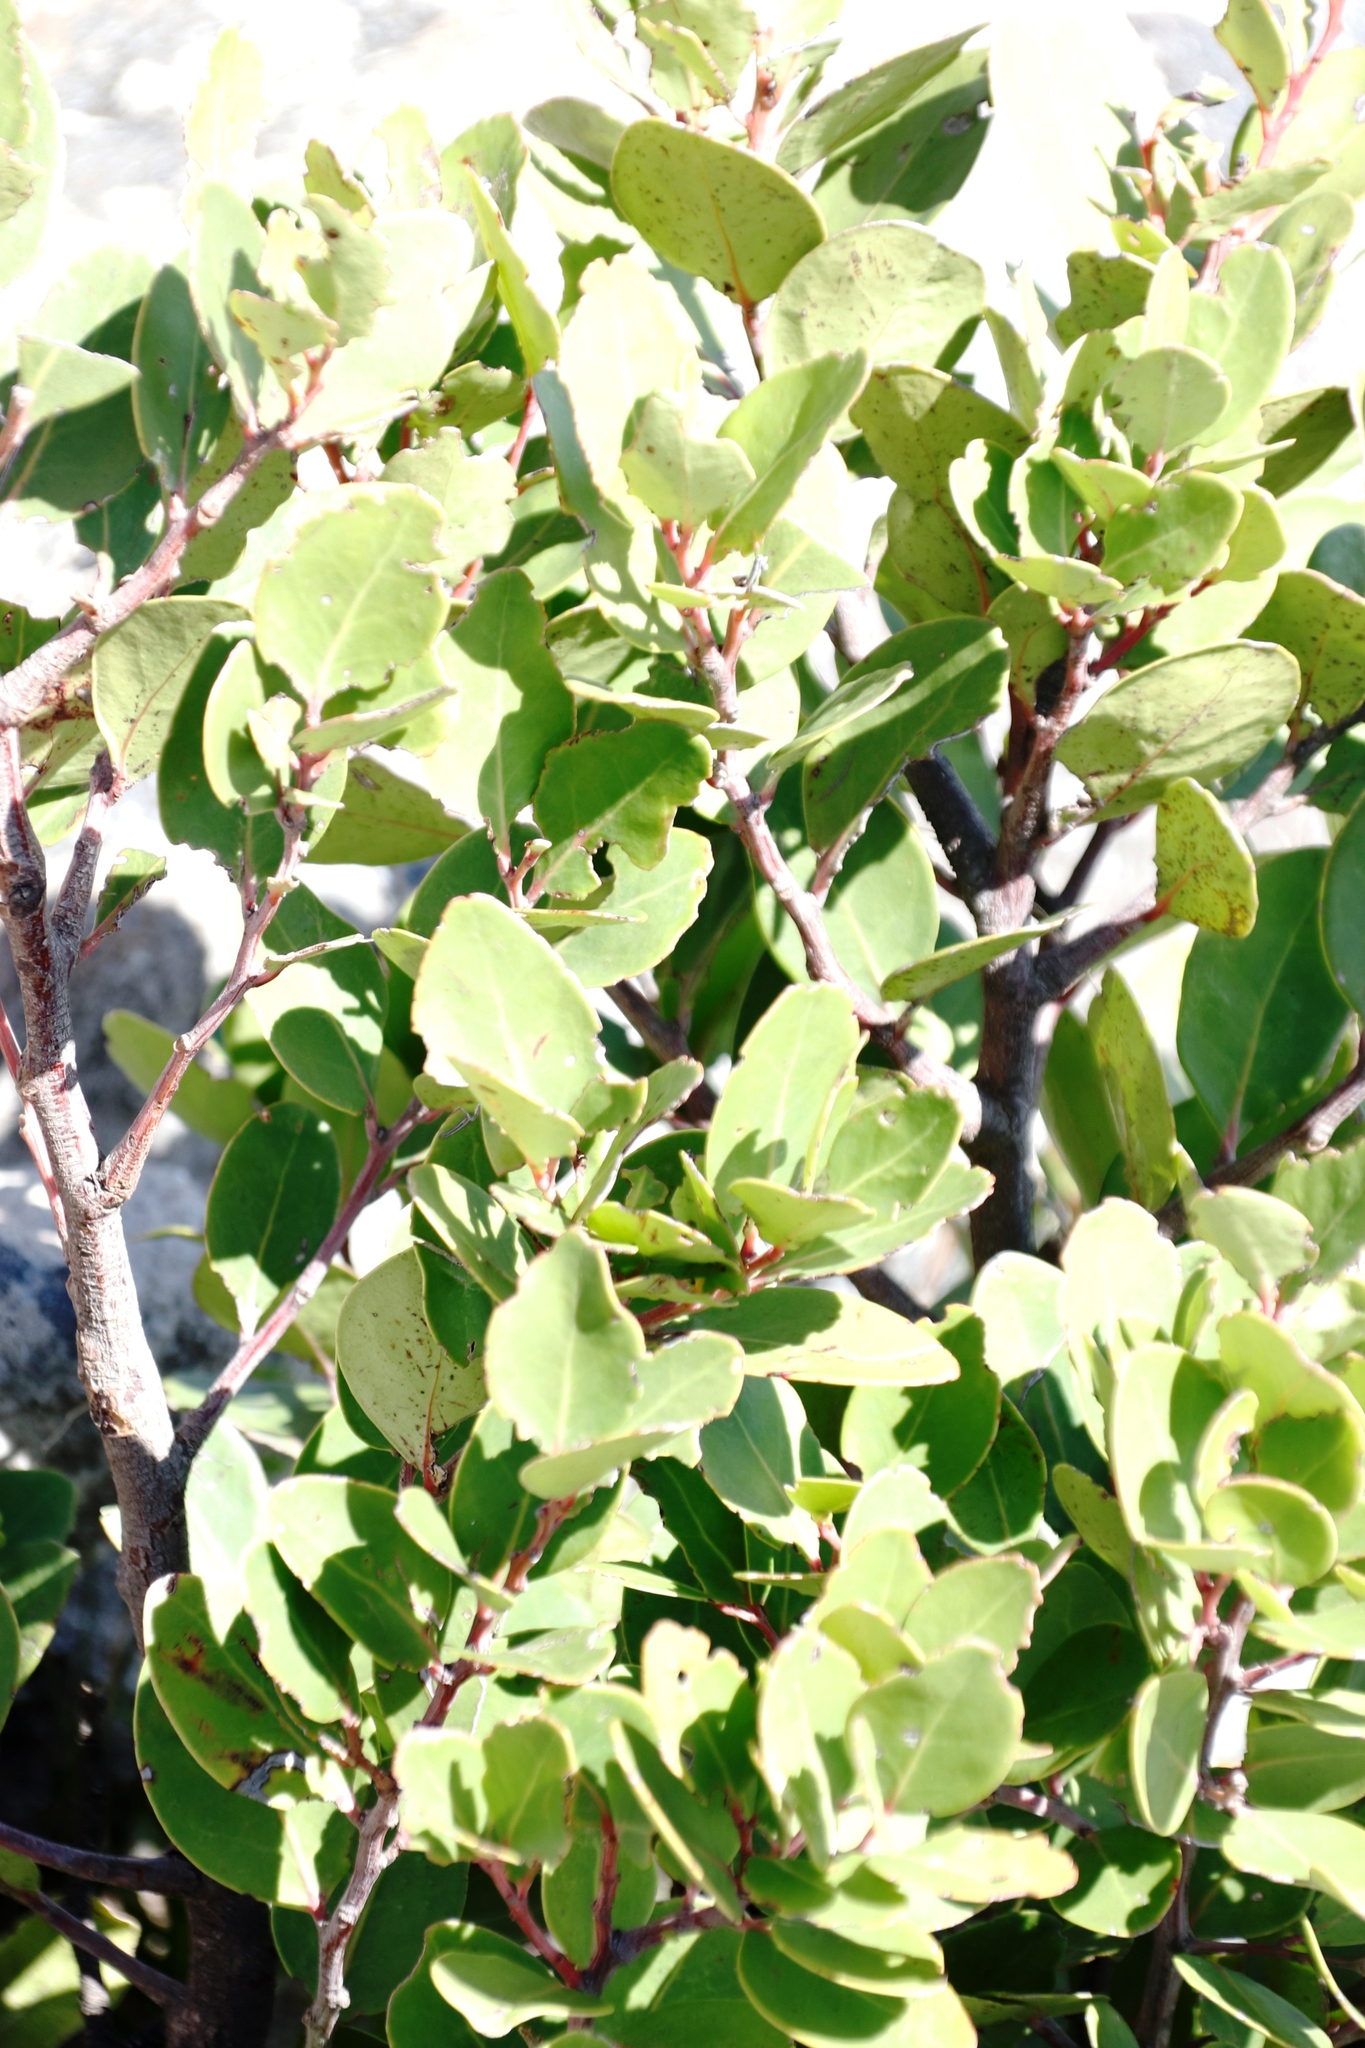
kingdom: Plantae
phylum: Tracheophyta
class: Magnoliopsida
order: Celastrales
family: Celastraceae
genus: Pterocelastrus
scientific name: Pterocelastrus tricuspidatus
